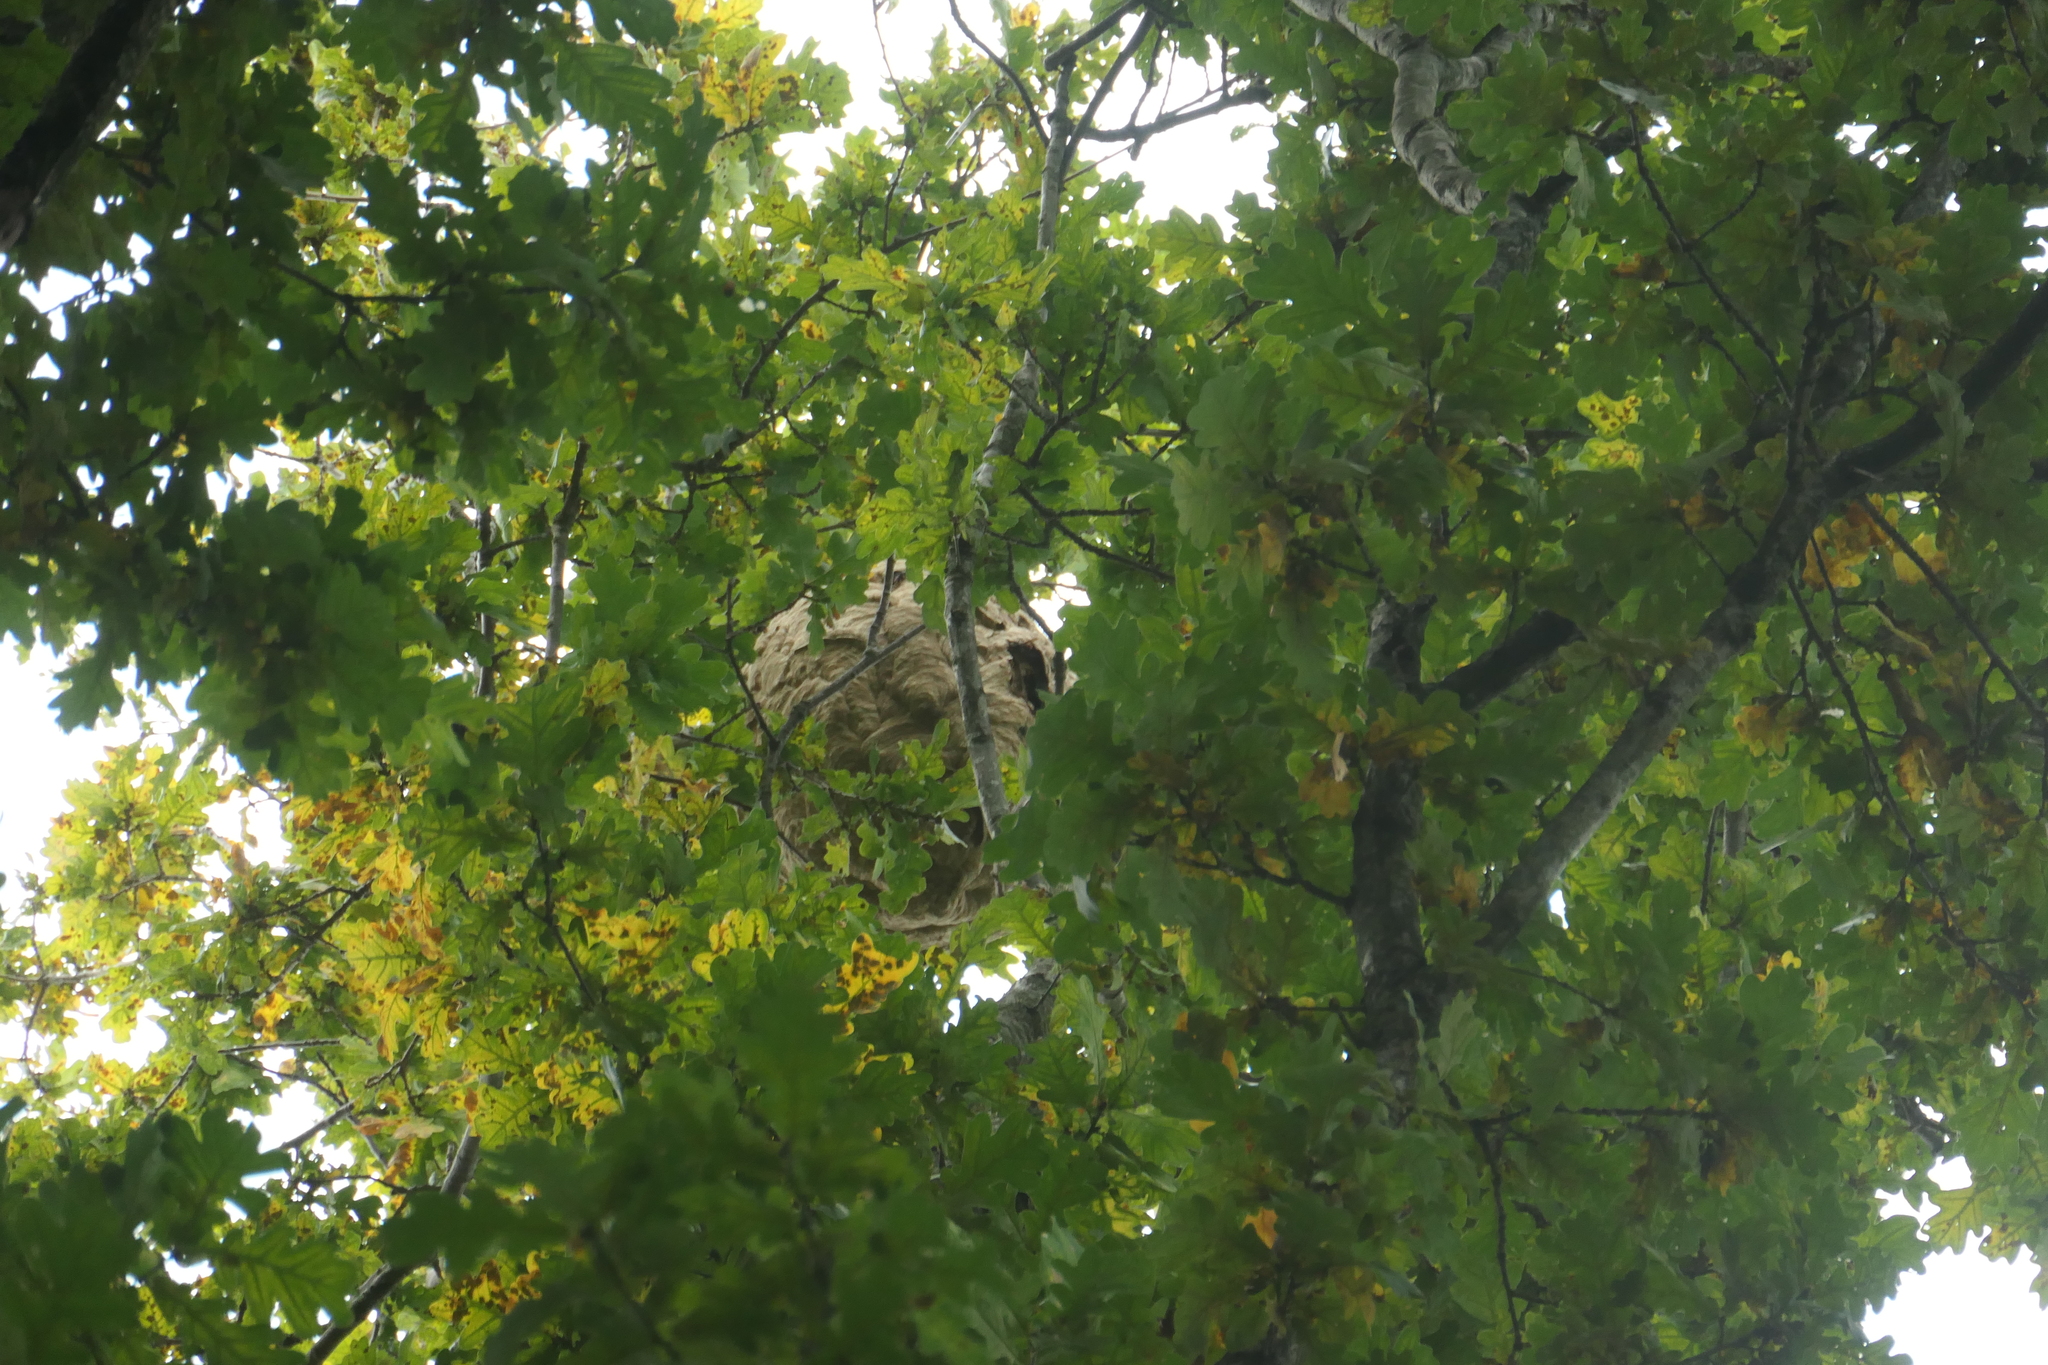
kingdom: Animalia
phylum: Arthropoda
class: Insecta
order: Hymenoptera
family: Vespidae
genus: Vespa
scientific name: Vespa velutina
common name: Asian hornet
